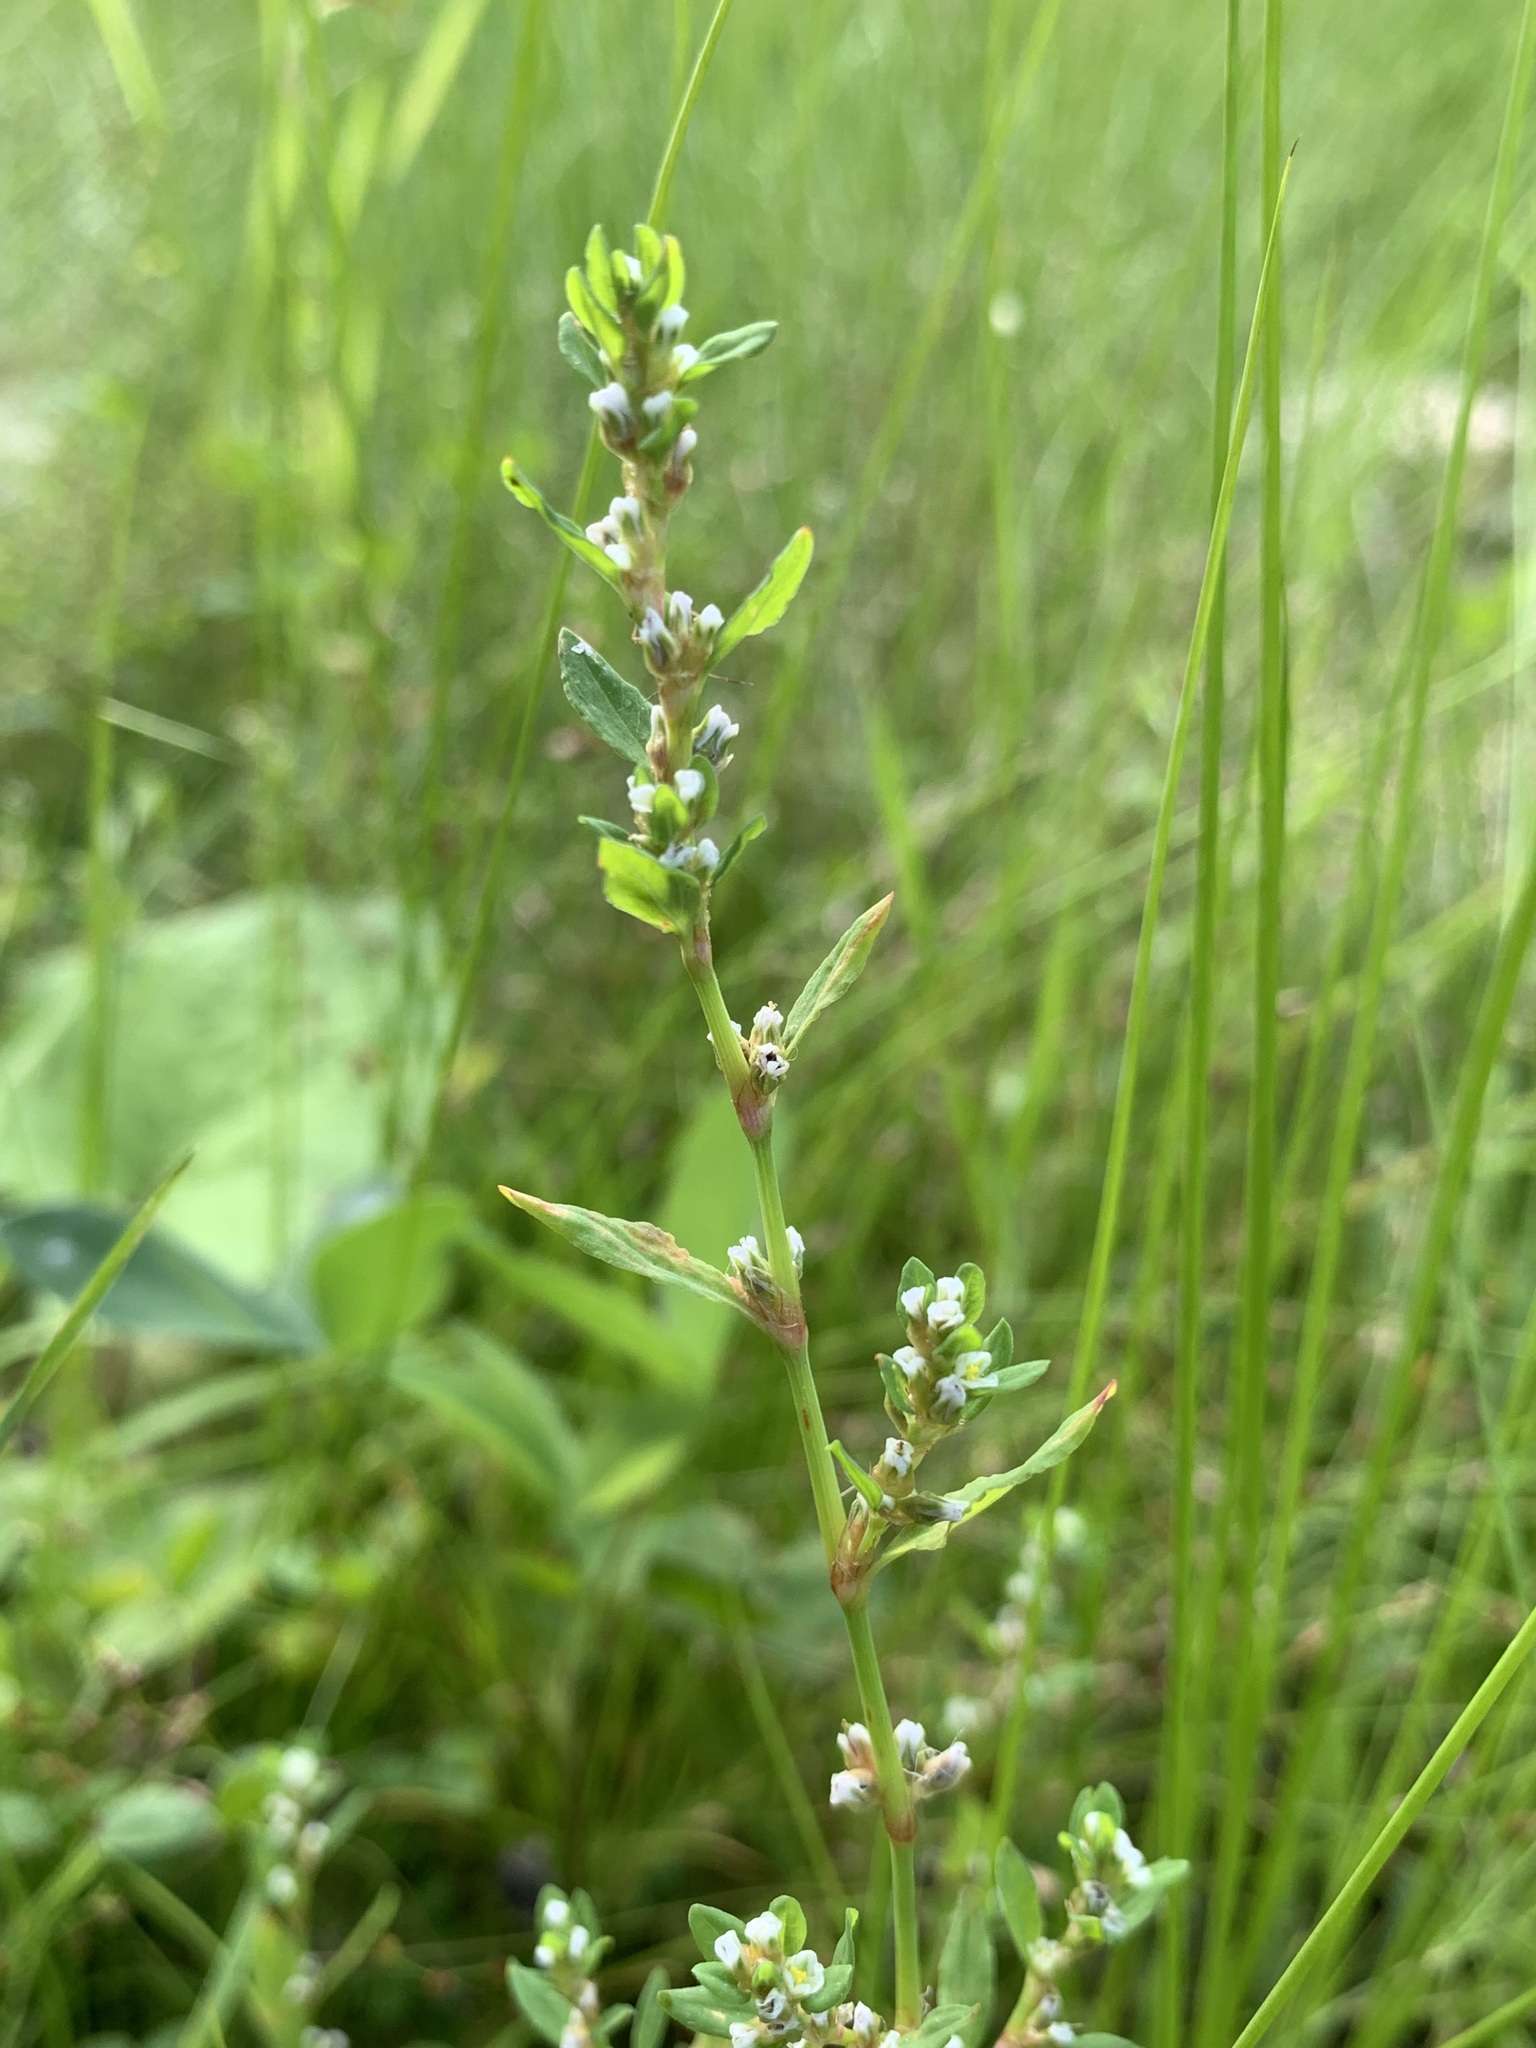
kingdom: Plantae
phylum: Tracheophyta
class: Magnoliopsida
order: Caryophyllales
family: Polygonaceae
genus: Polygonum
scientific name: Polygonum
